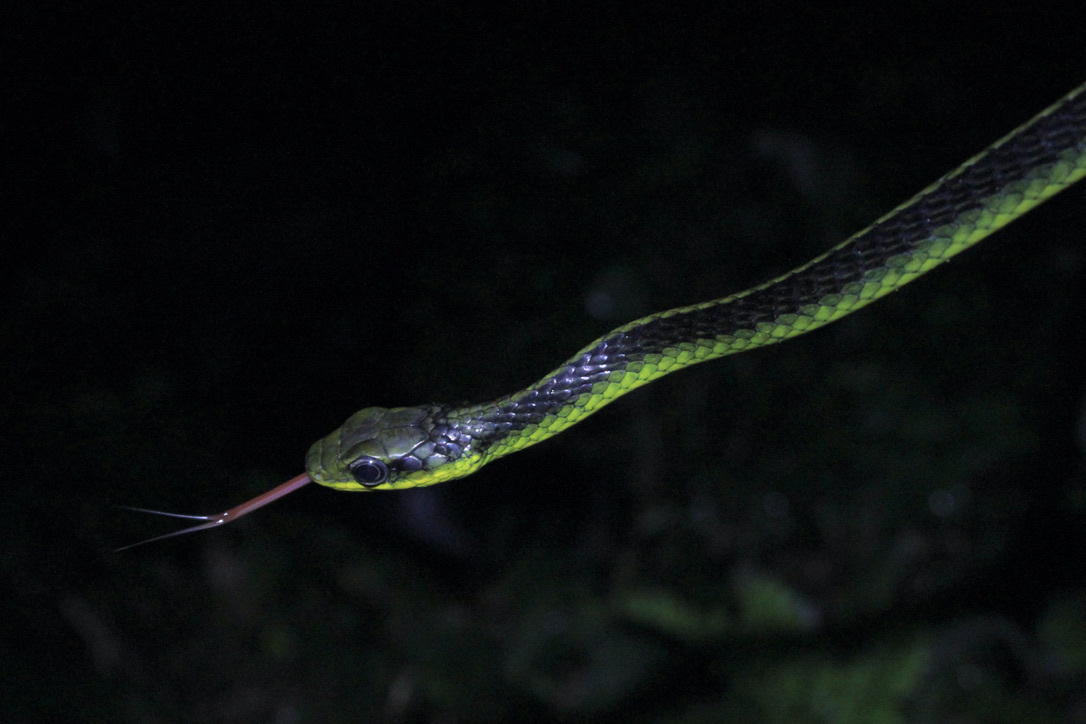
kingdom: Animalia
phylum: Chordata
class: Squamata
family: Colubridae
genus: Chironius
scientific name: Chironius septentrionalis
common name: South american sipo
